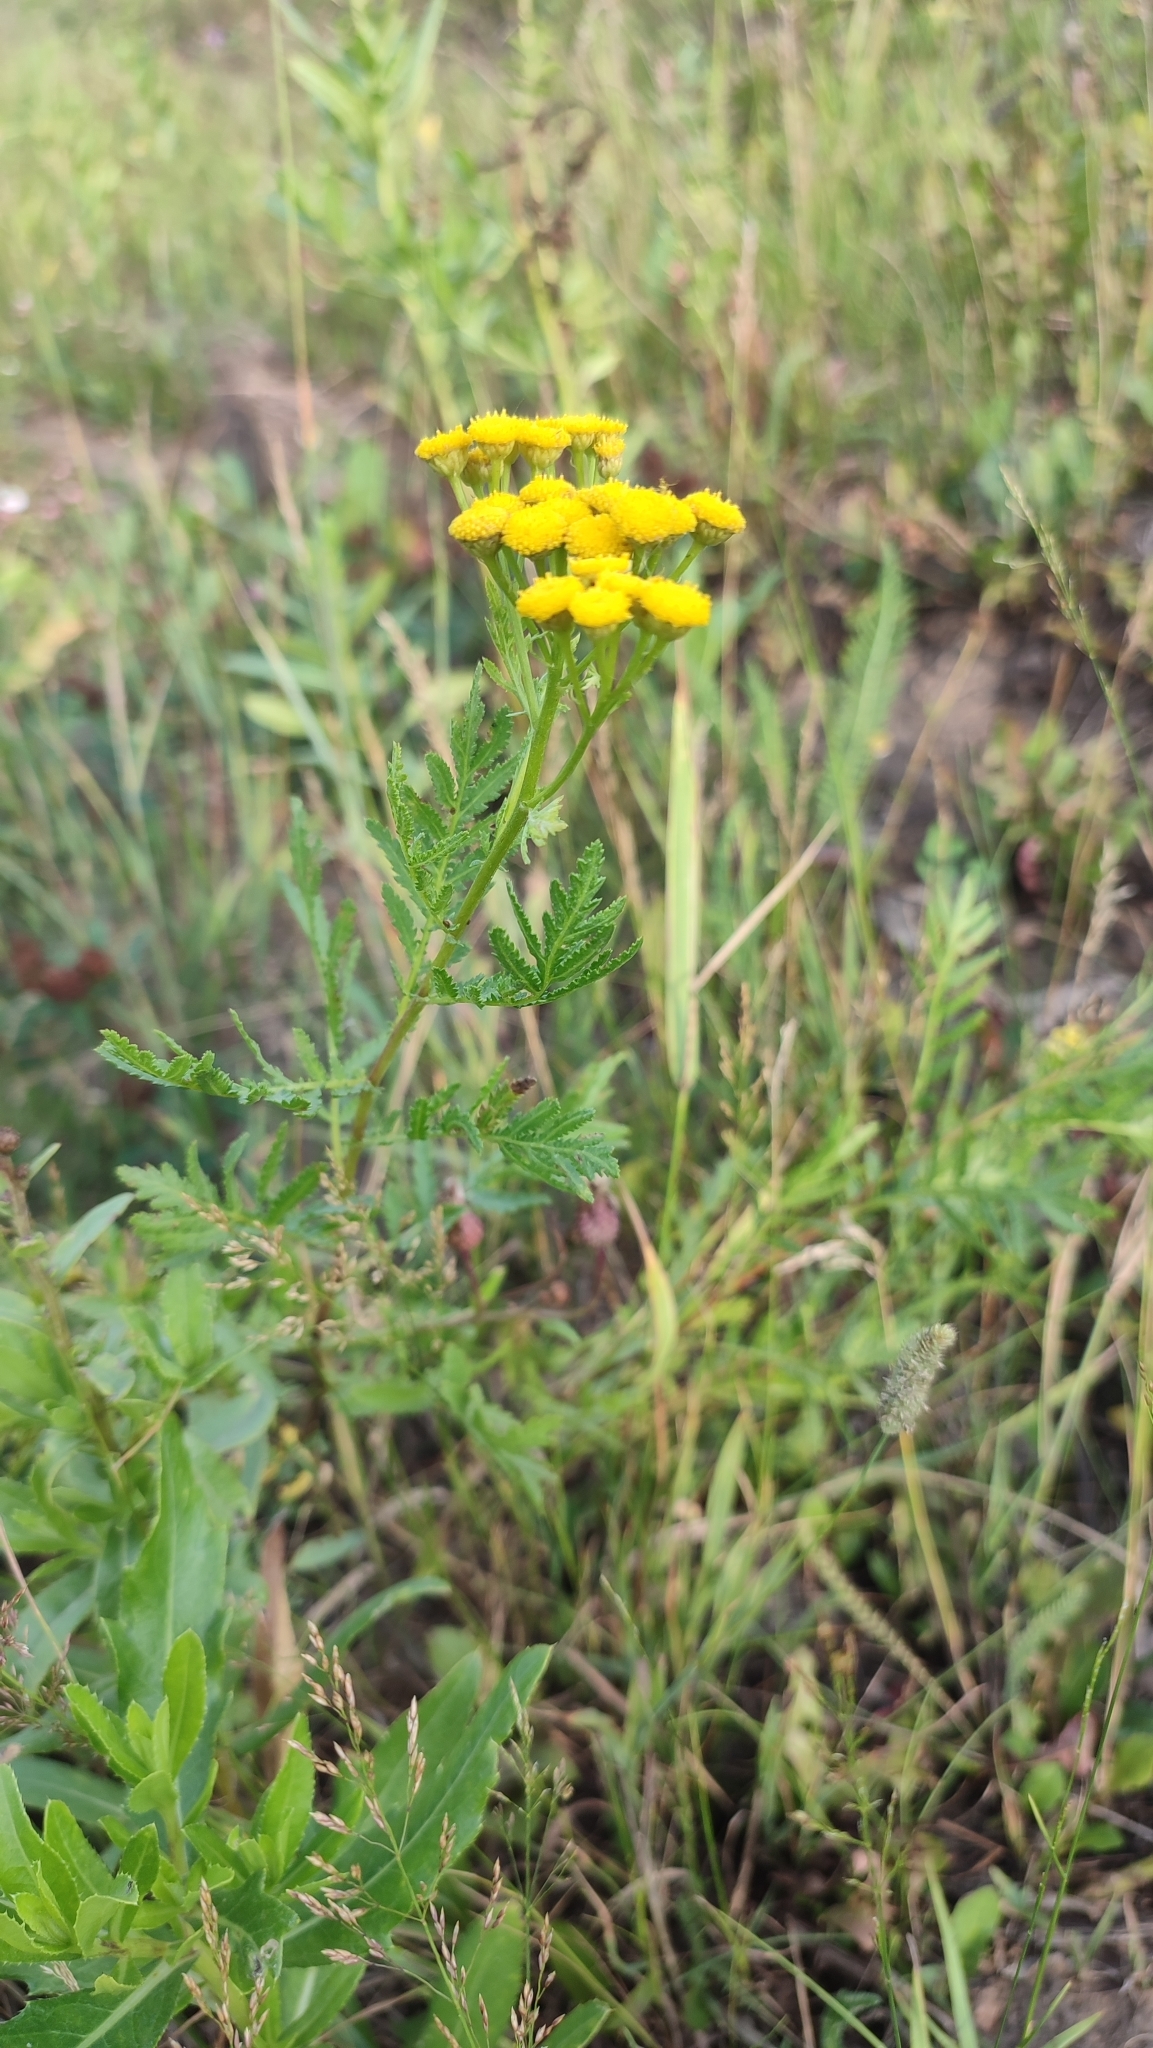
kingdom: Plantae
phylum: Tracheophyta
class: Magnoliopsida
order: Asterales
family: Asteraceae
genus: Tanacetum
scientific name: Tanacetum vulgare
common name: Common tansy
